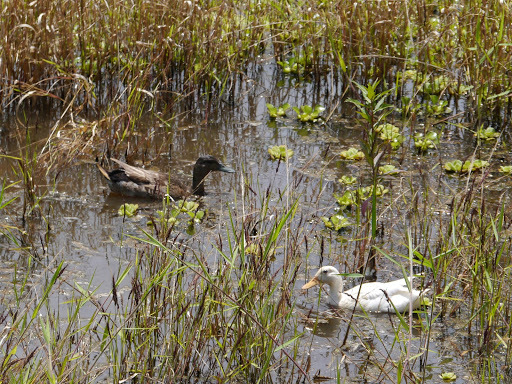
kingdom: Animalia
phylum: Chordata
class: Aves
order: Anseriformes
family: Anatidae
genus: Anas
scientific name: Anas platyrhynchos
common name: Mallard
